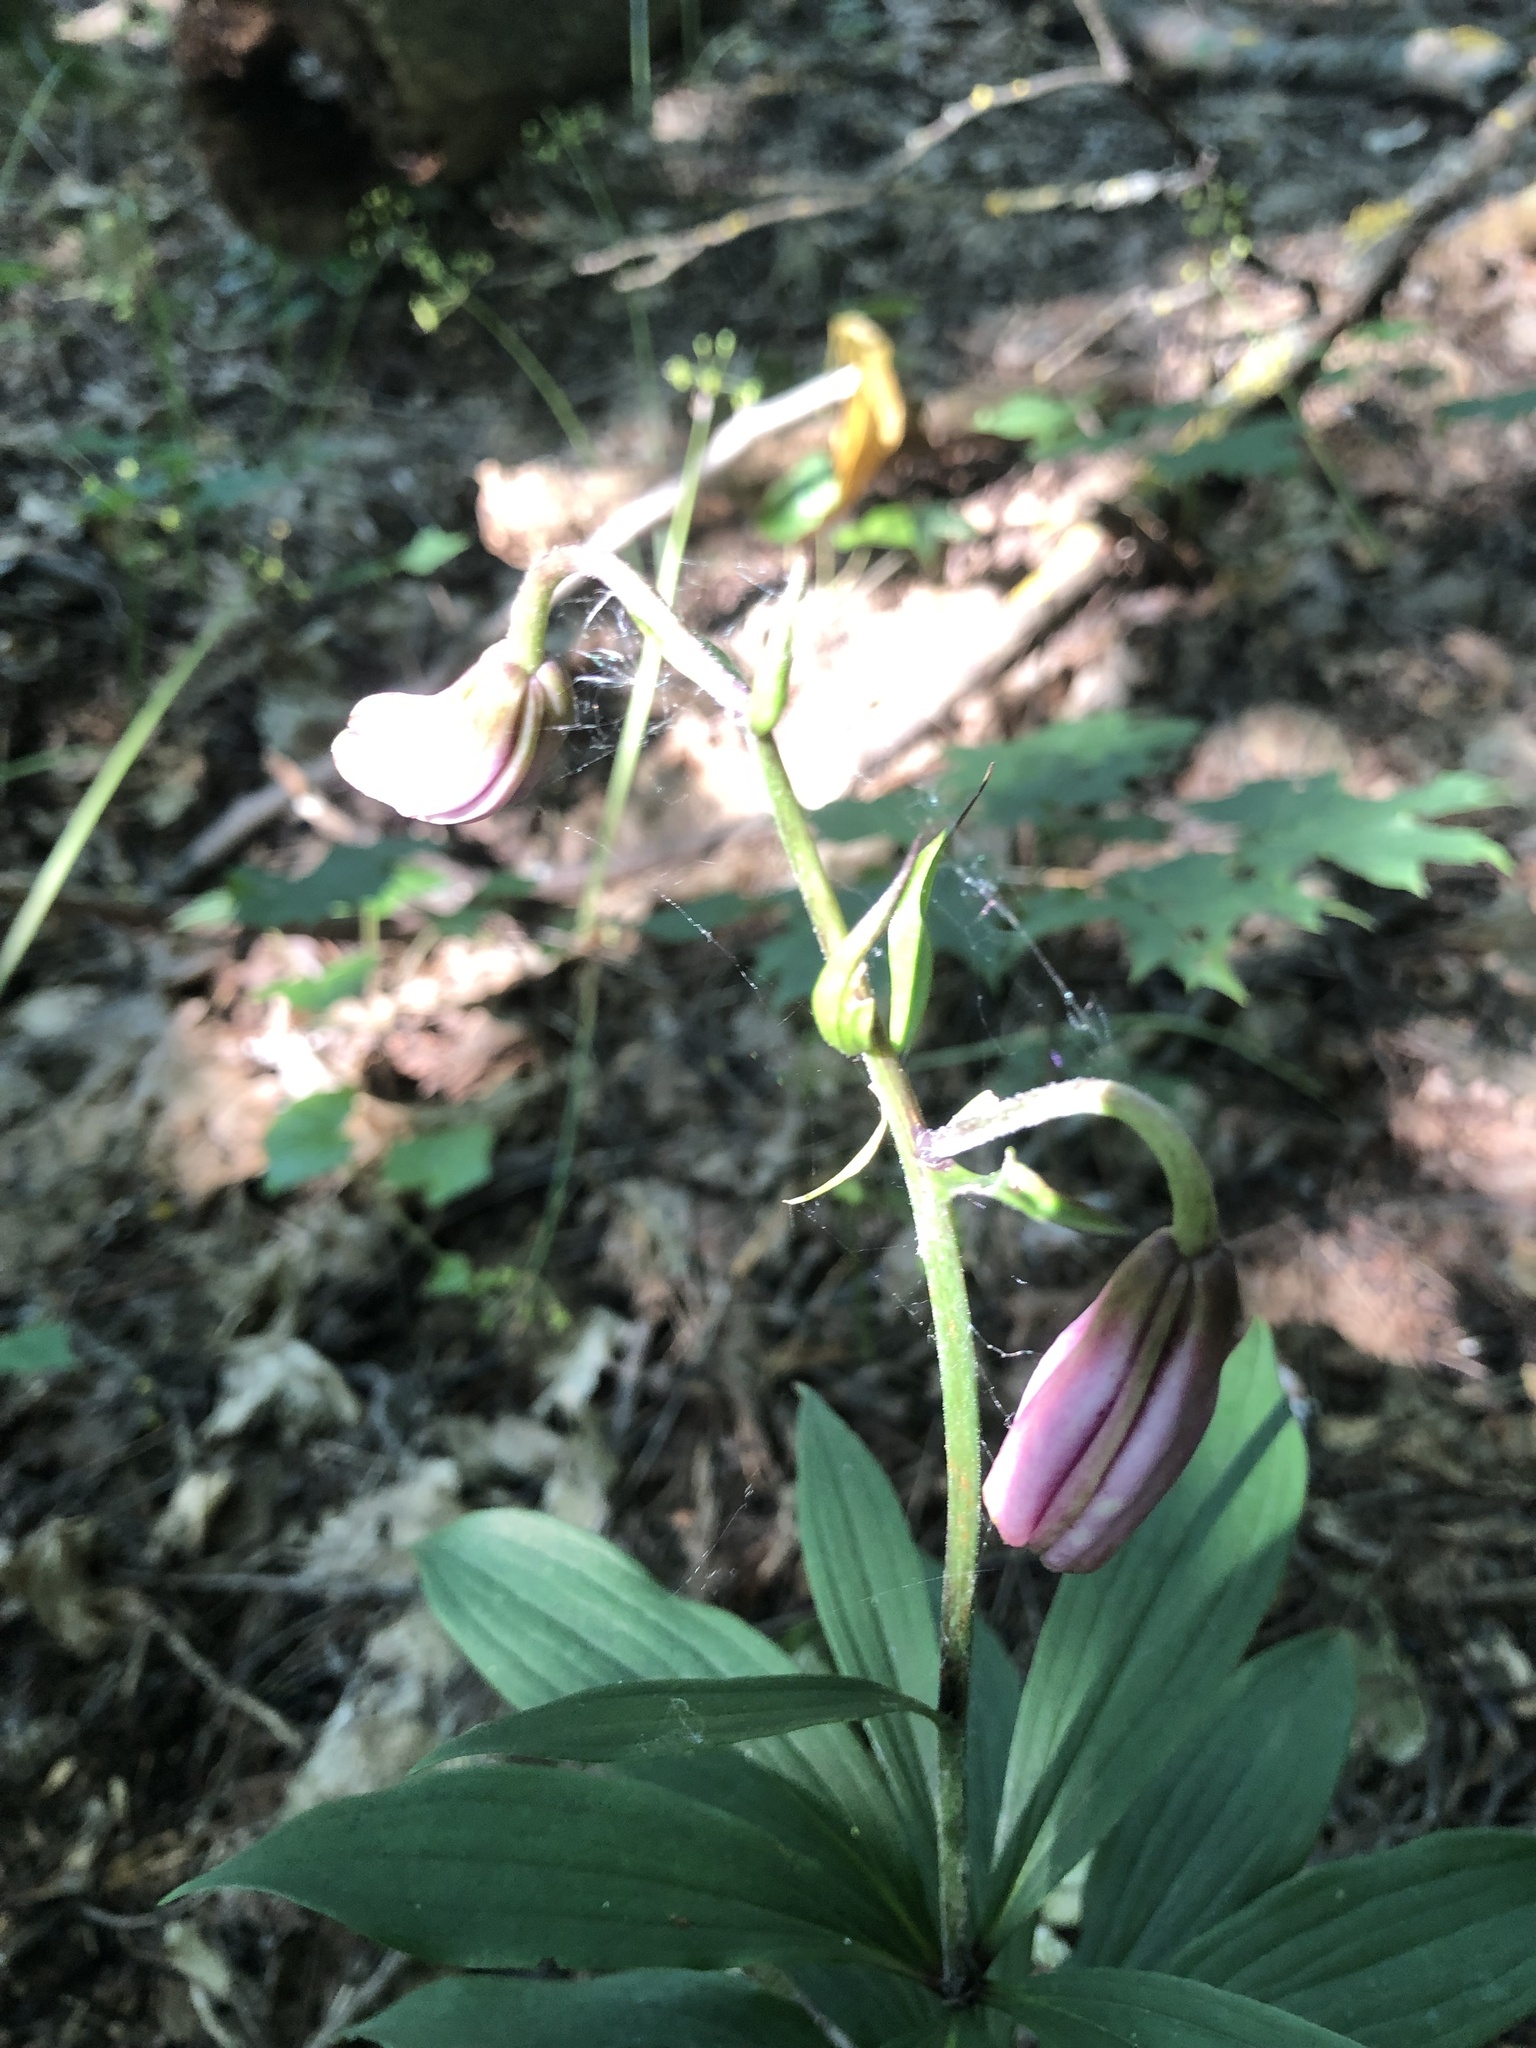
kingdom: Plantae
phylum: Tracheophyta
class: Liliopsida
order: Liliales
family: Liliaceae
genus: Lilium
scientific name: Lilium martagon
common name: Martagon lily
